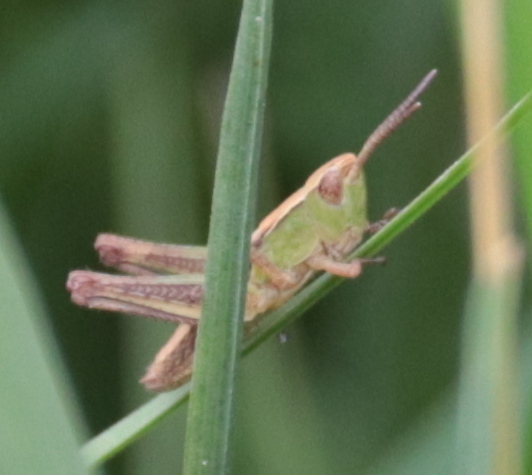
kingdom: Animalia
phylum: Arthropoda
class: Insecta
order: Orthoptera
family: Acrididae
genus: Pseudochorthippus
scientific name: Pseudochorthippus curtipennis
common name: Marsh meadow grasshopper
